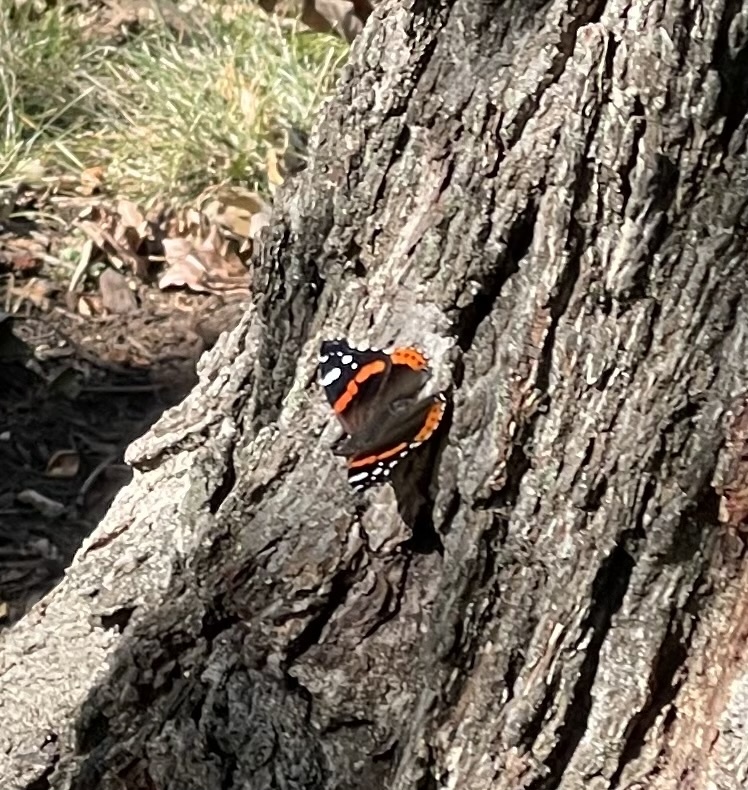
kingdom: Animalia
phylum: Arthropoda
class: Insecta
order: Lepidoptera
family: Nymphalidae
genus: Vanessa
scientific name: Vanessa atalanta
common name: Red admiral
